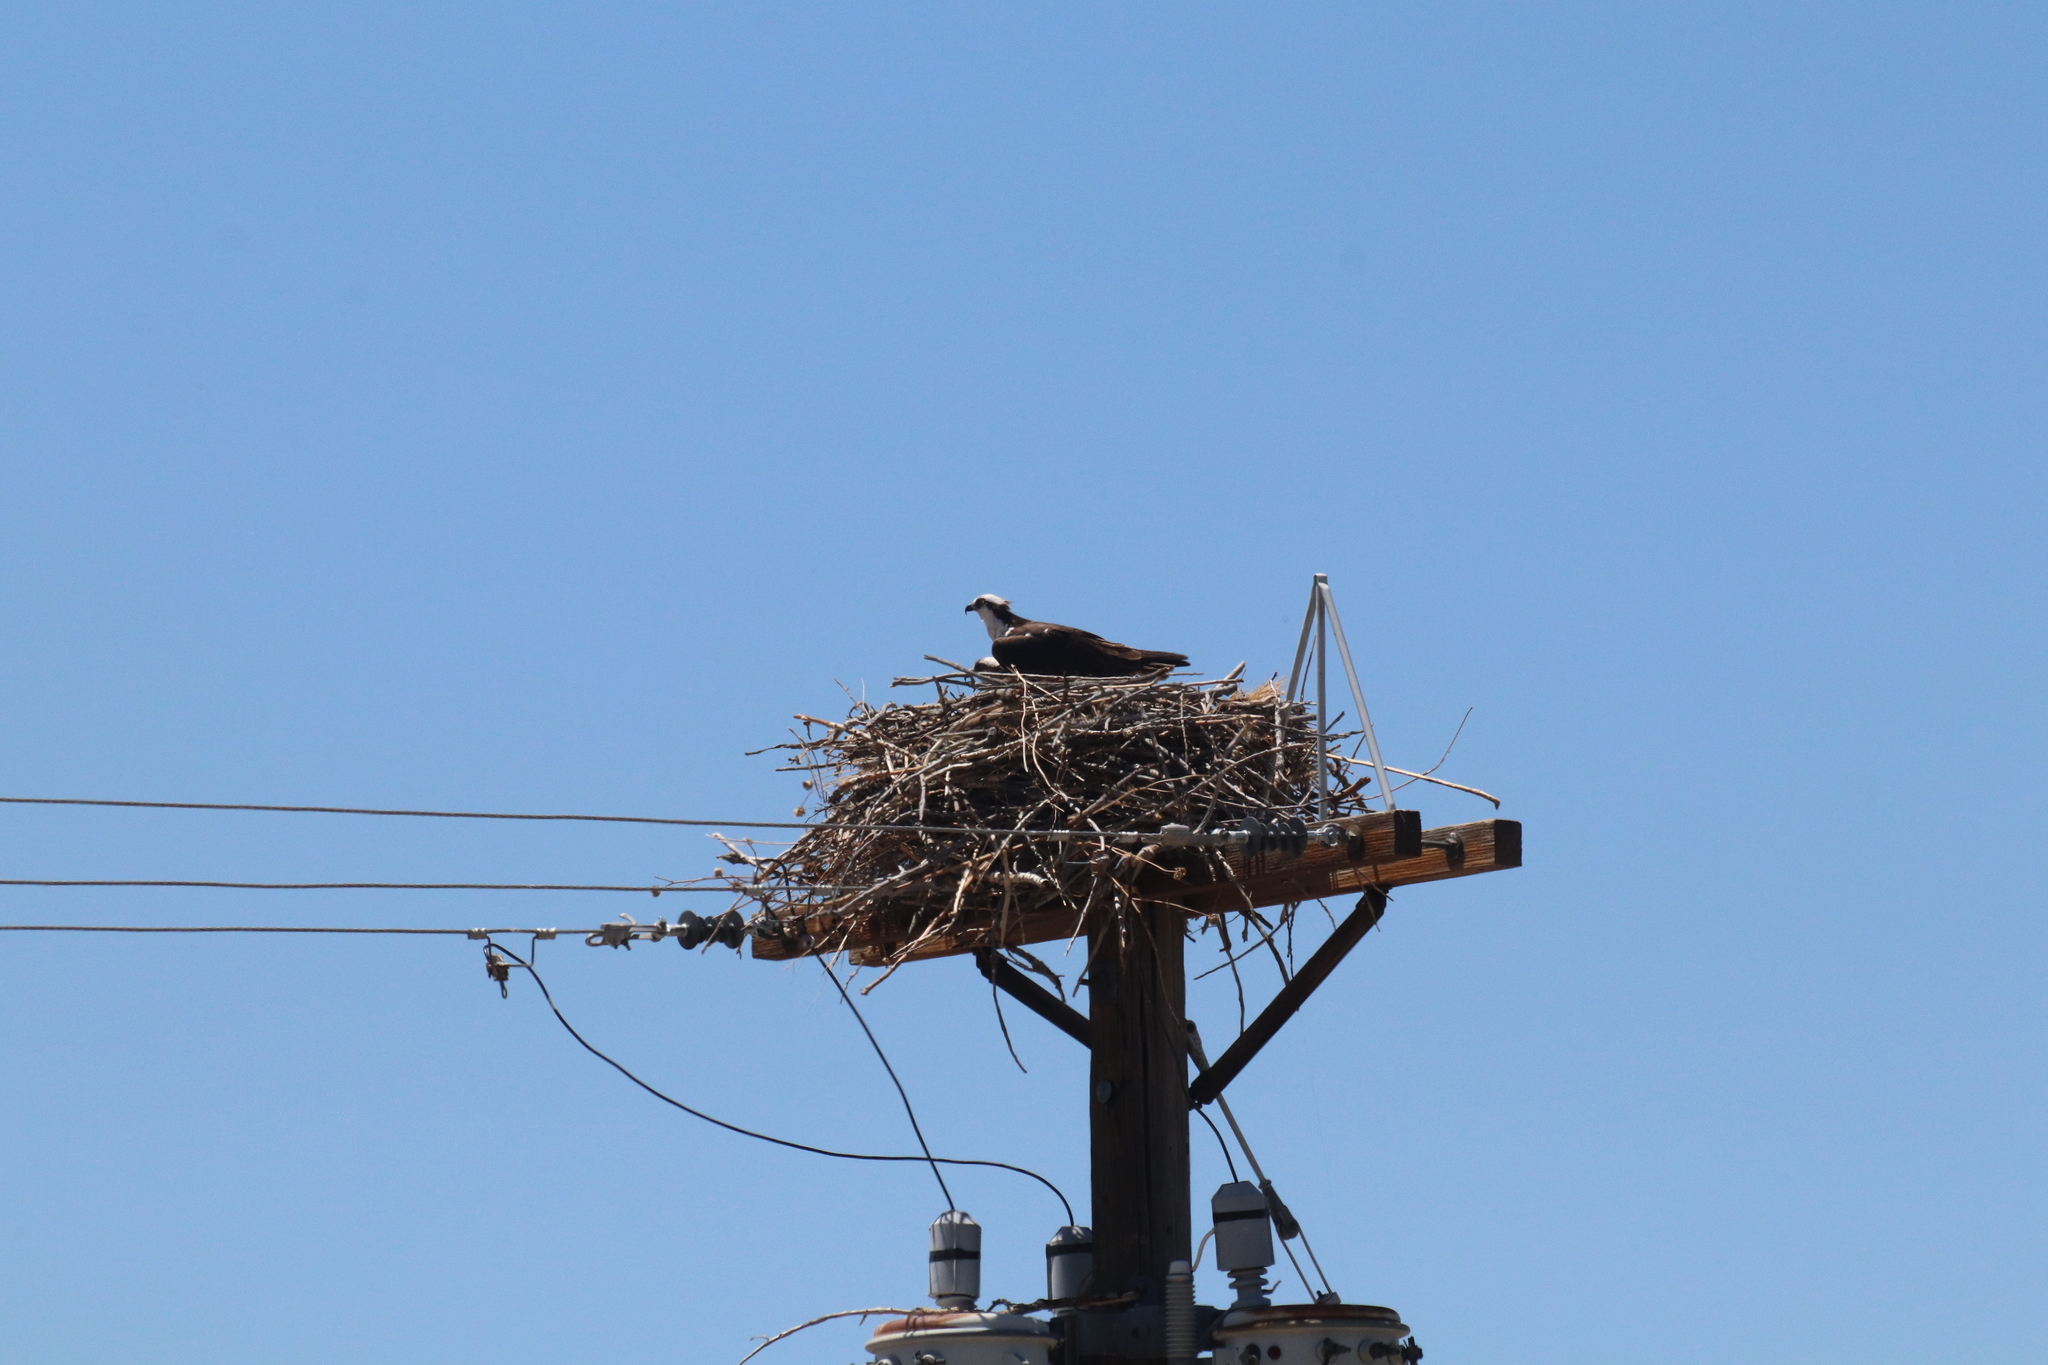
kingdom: Animalia
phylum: Chordata
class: Aves
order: Accipitriformes
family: Pandionidae
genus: Pandion
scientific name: Pandion haliaetus
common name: Osprey
